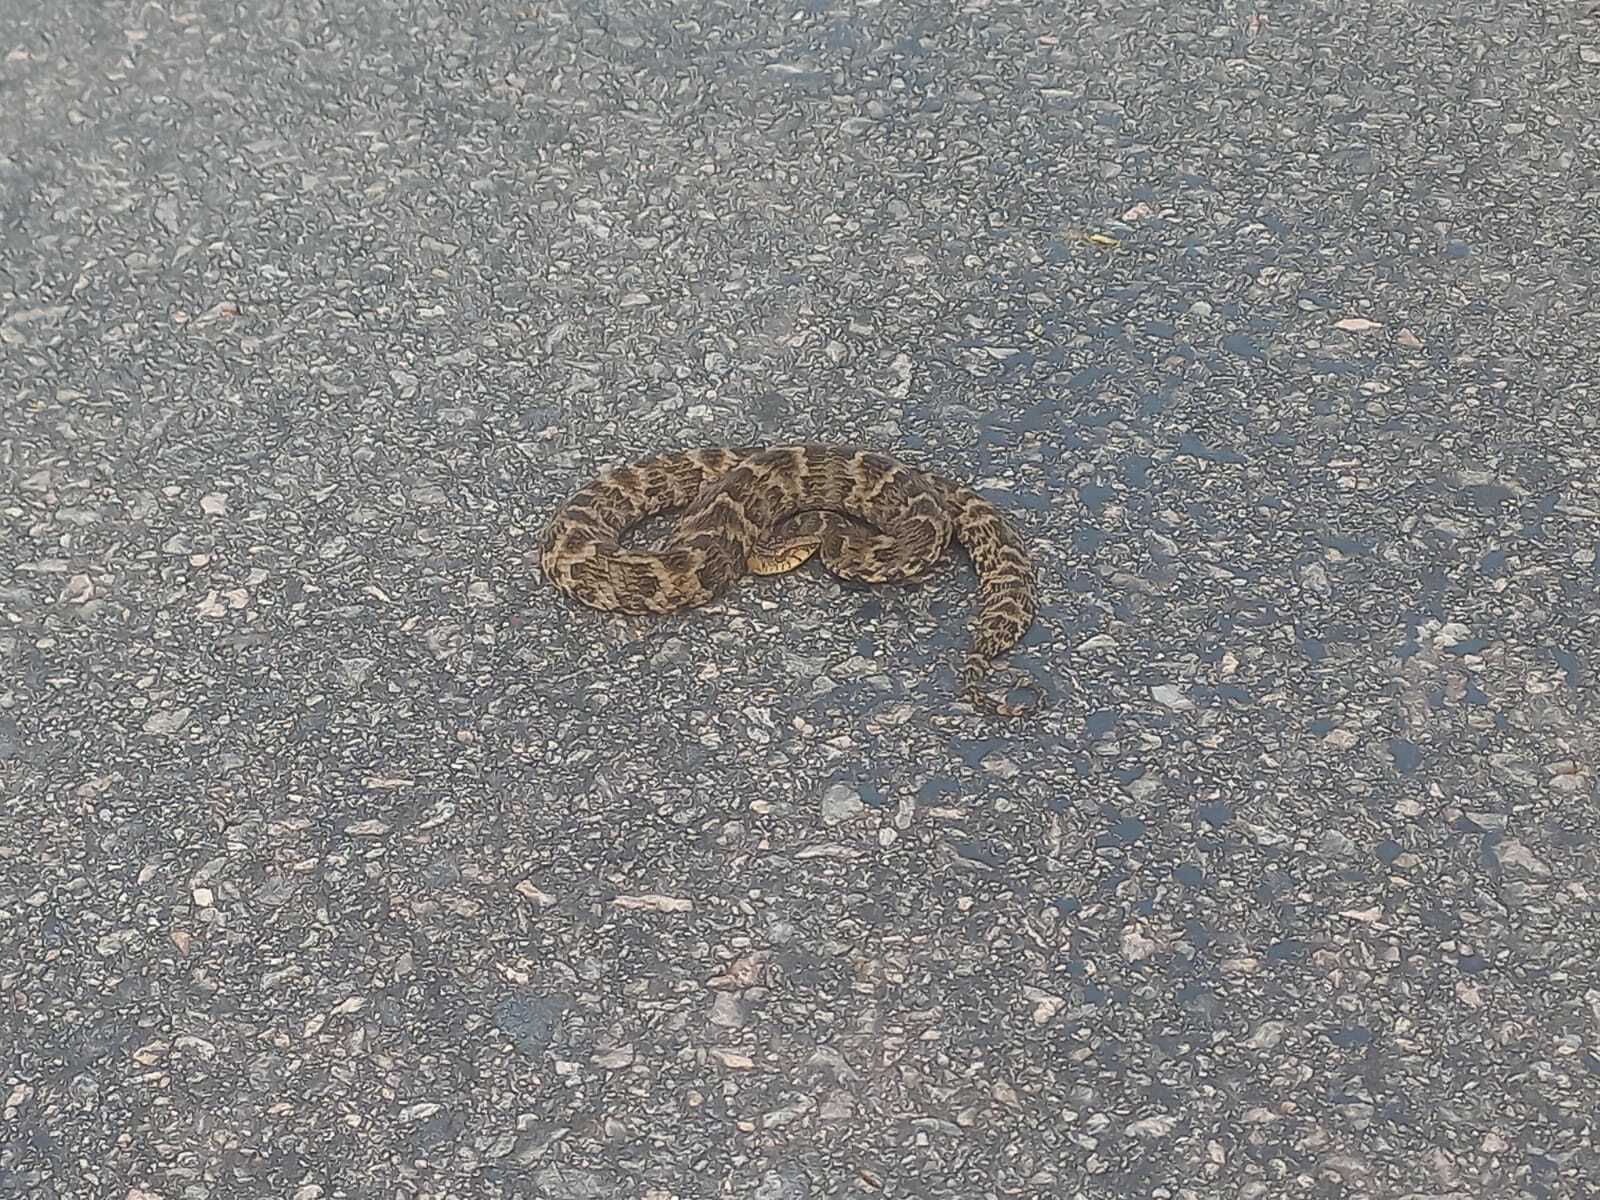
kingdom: Animalia
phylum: Chordata
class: Squamata
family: Colubridae
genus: Xenodon
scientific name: Xenodon rabdocephalus
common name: False fer-de-lance
